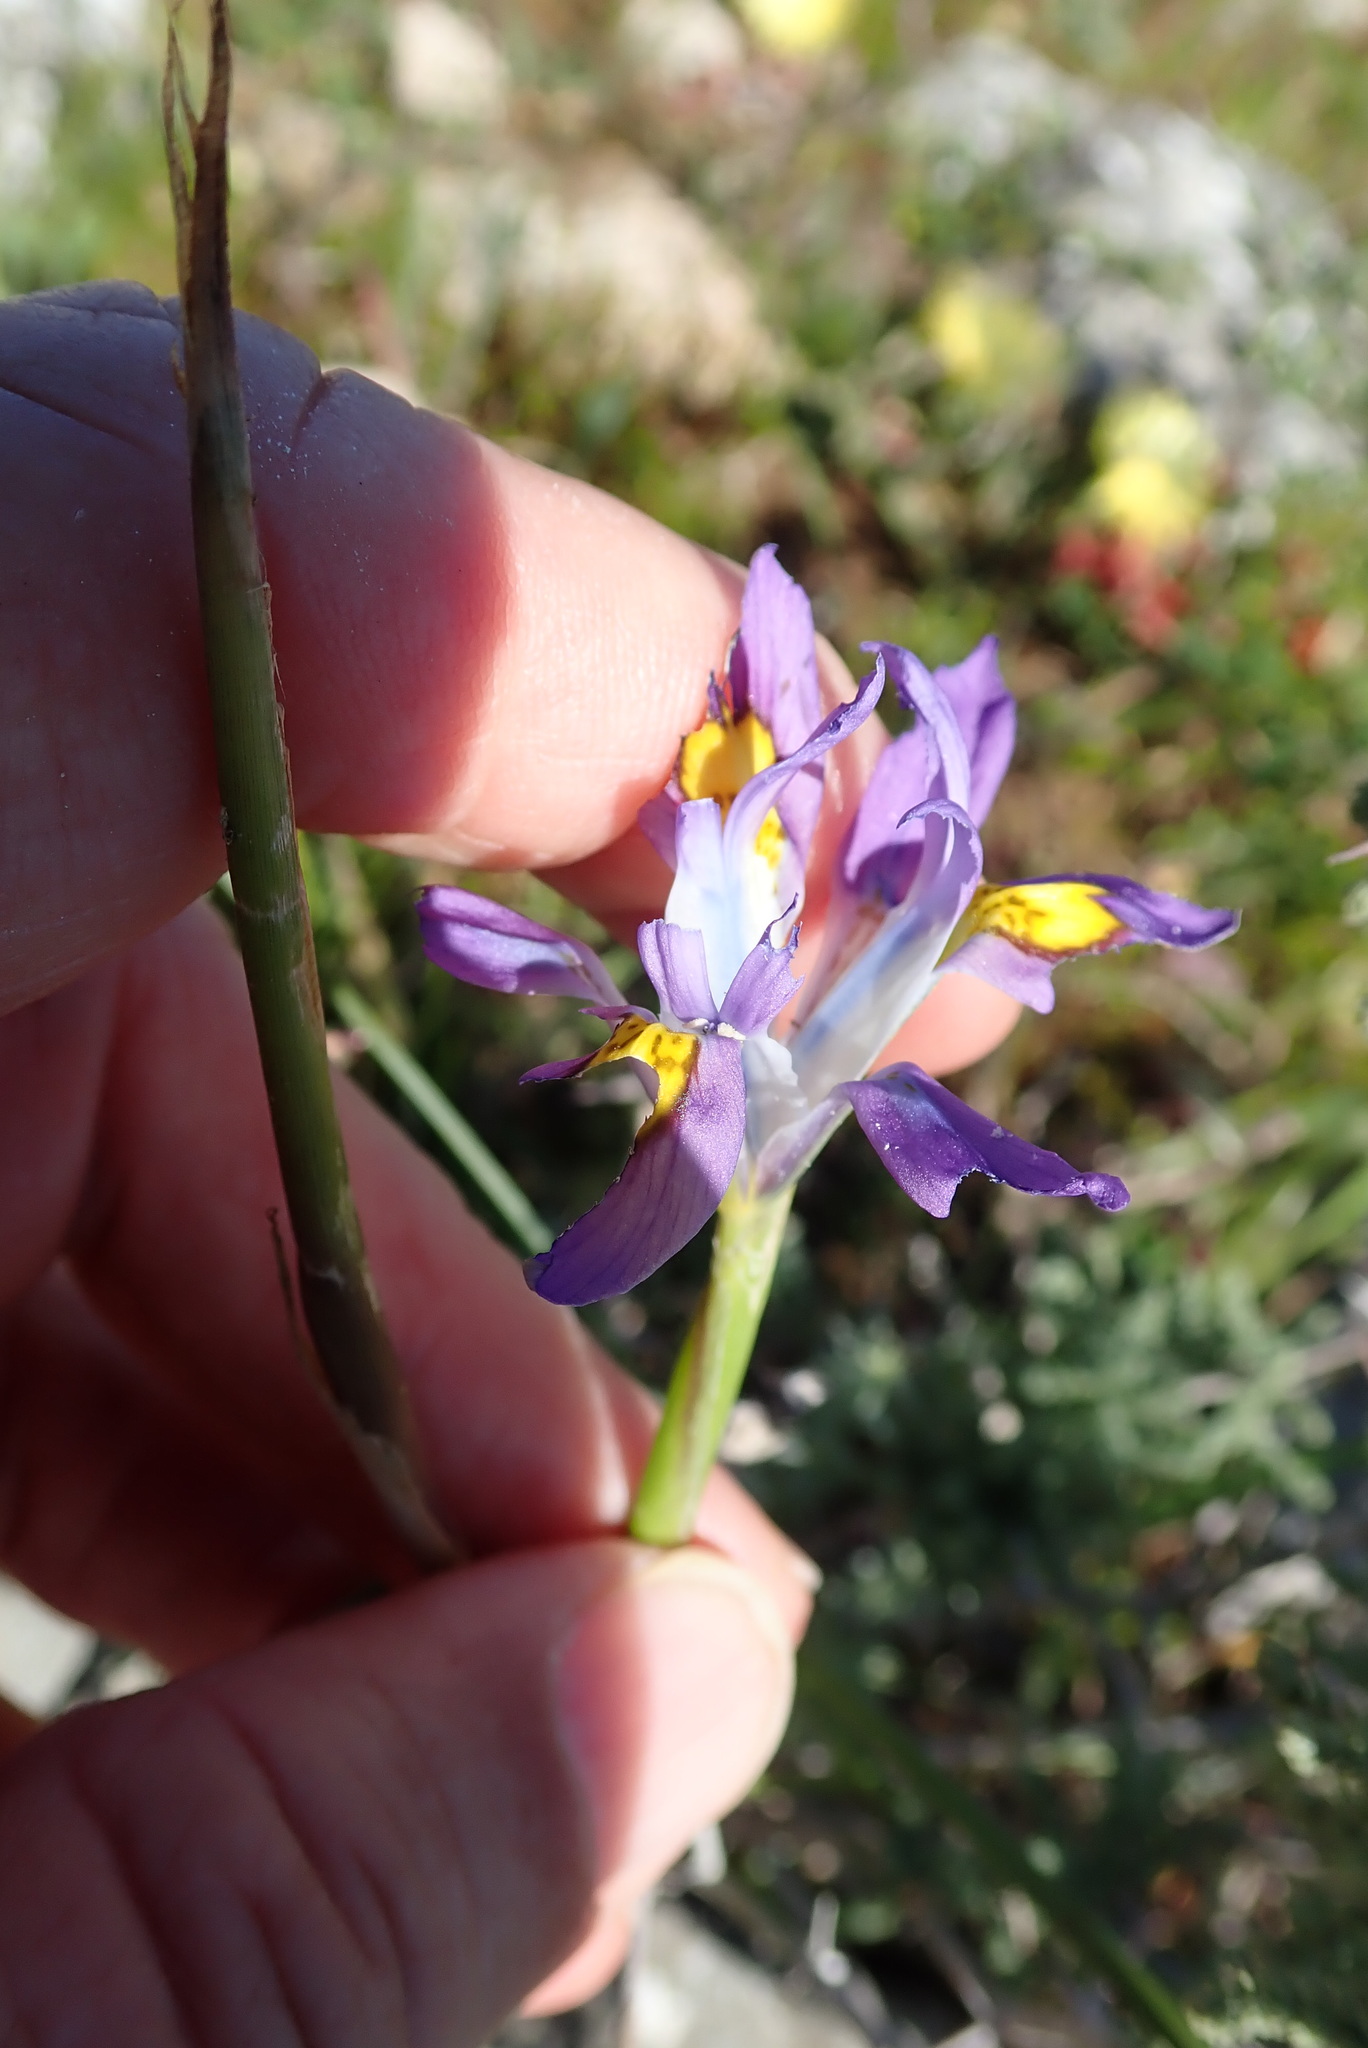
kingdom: Plantae
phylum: Tracheophyta
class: Liliopsida
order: Asparagales
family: Iridaceae
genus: Moraea
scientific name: Moraea fugax
